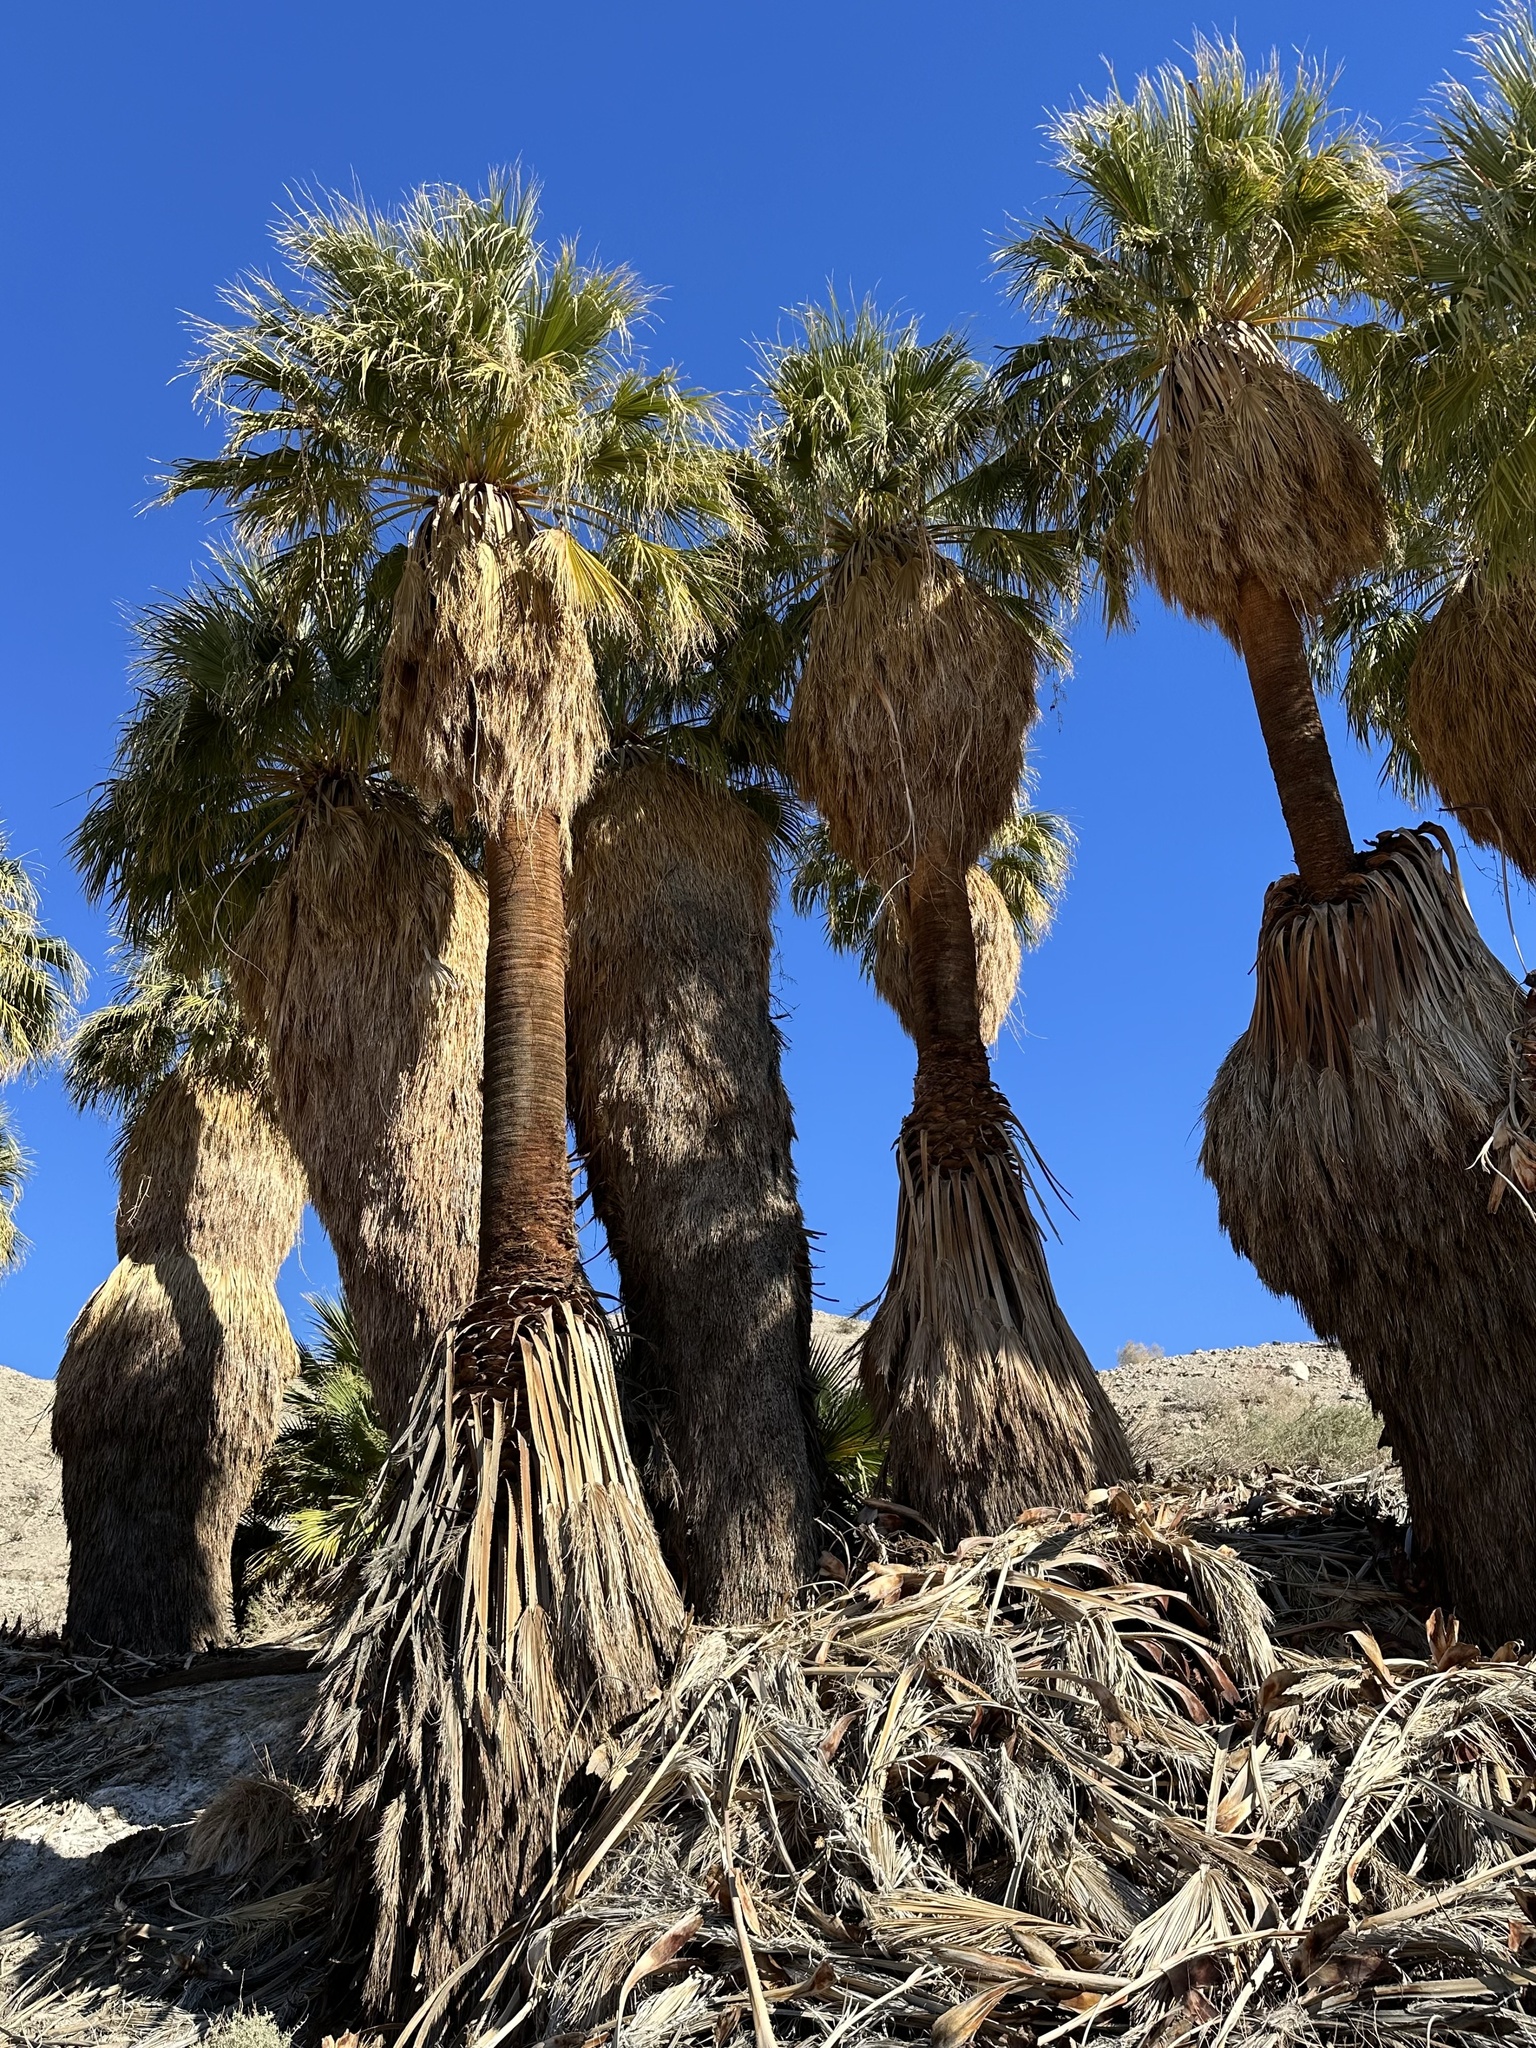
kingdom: Plantae
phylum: Tracheophyta
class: Liliopsida
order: Arecales
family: Arecaceae
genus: Washingtonia
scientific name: Washingtonia filifera
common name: California fan palm
